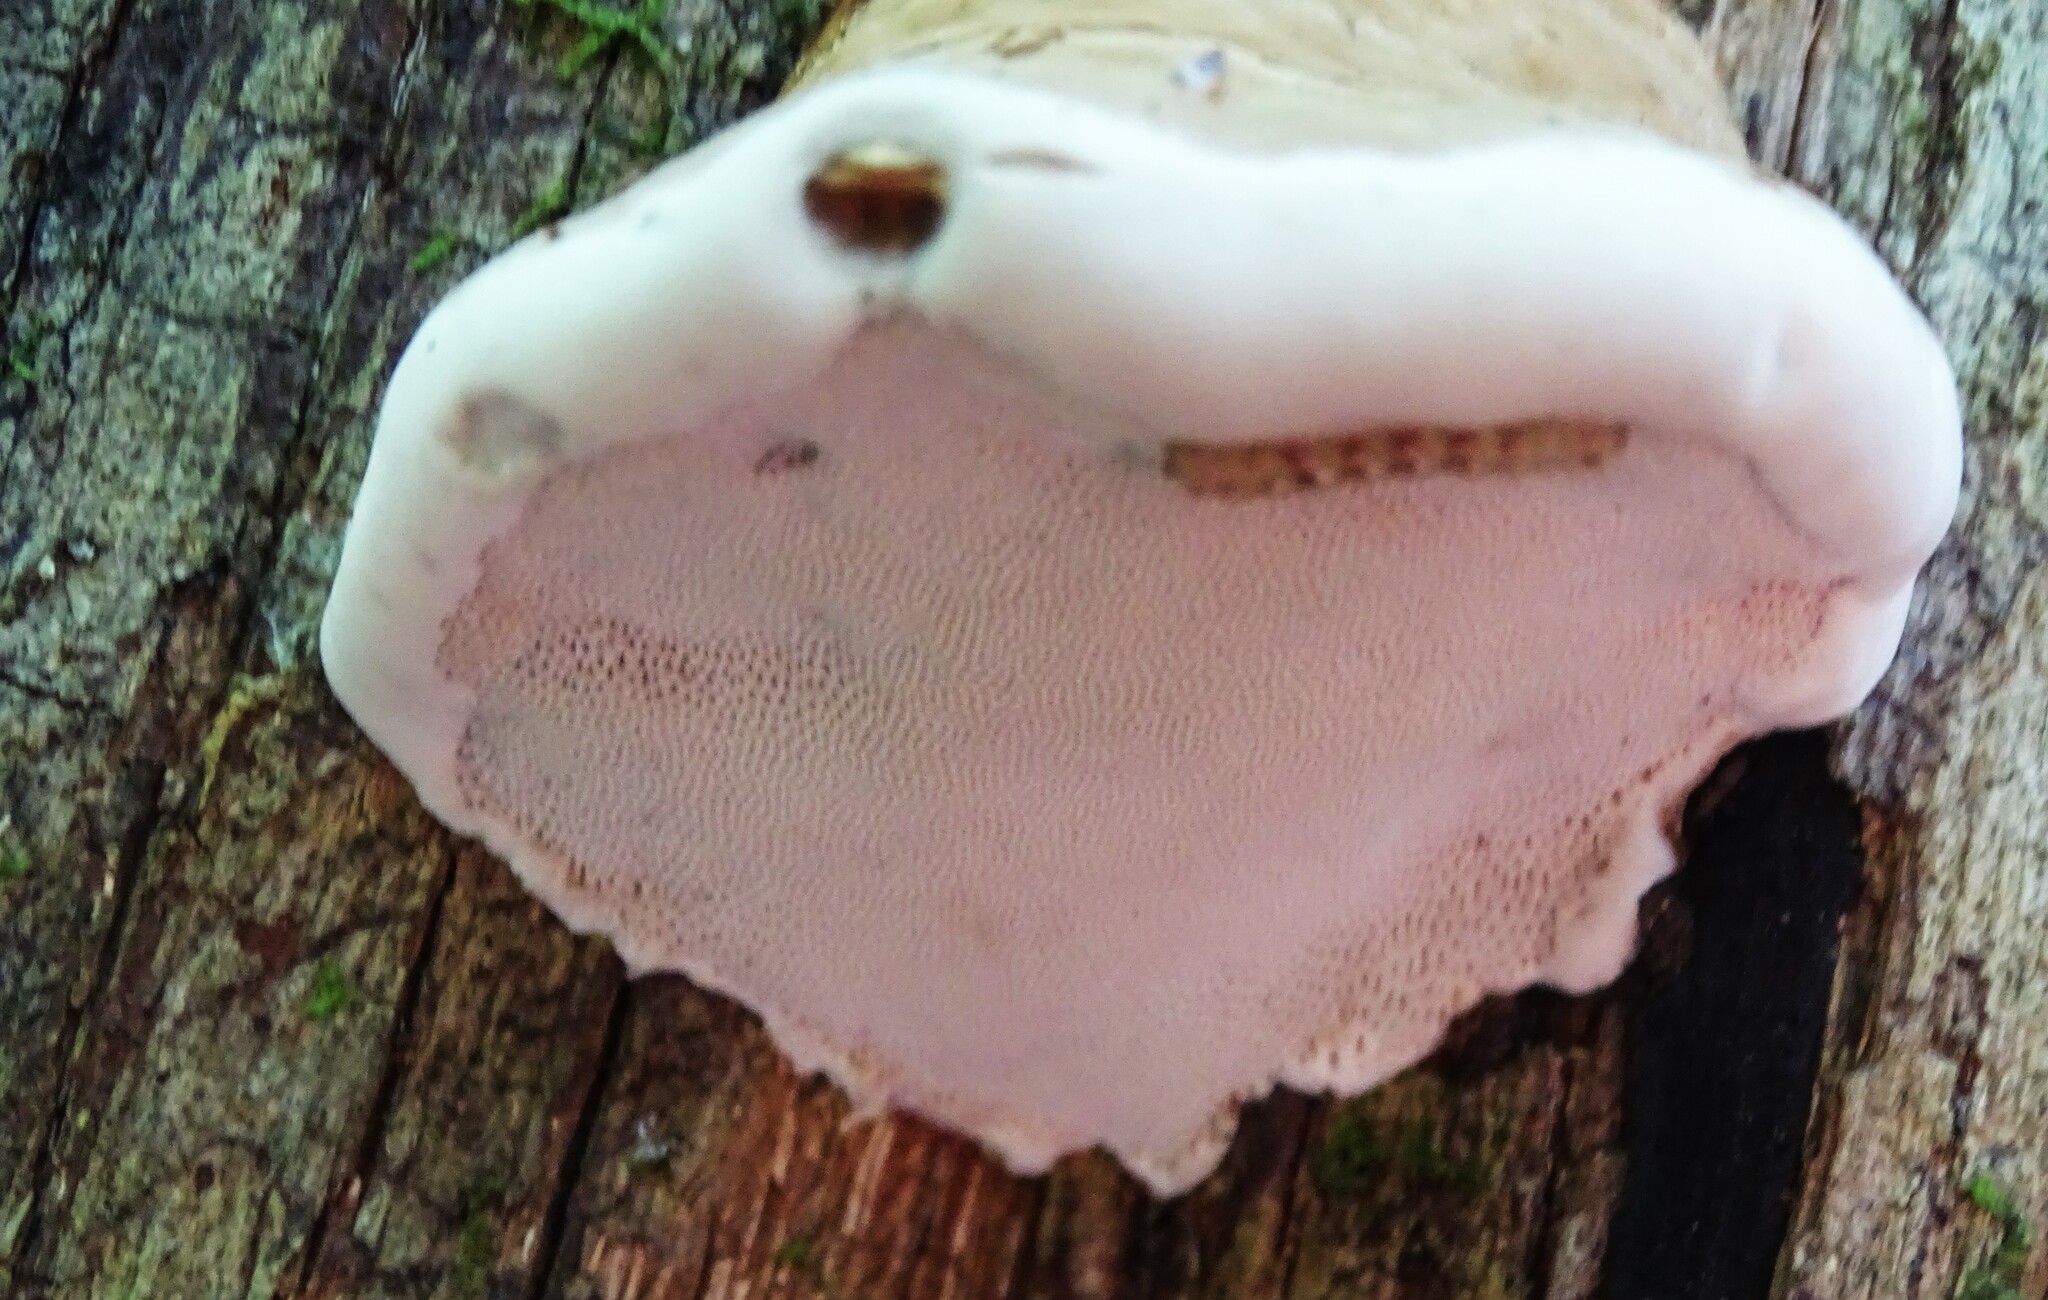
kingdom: Fungi
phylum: Basidiomycota
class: Agaricomycetes
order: Polyporales
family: Polyporaceae
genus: Fomes
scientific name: Fomes fomentarius
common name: Hoof fungus
